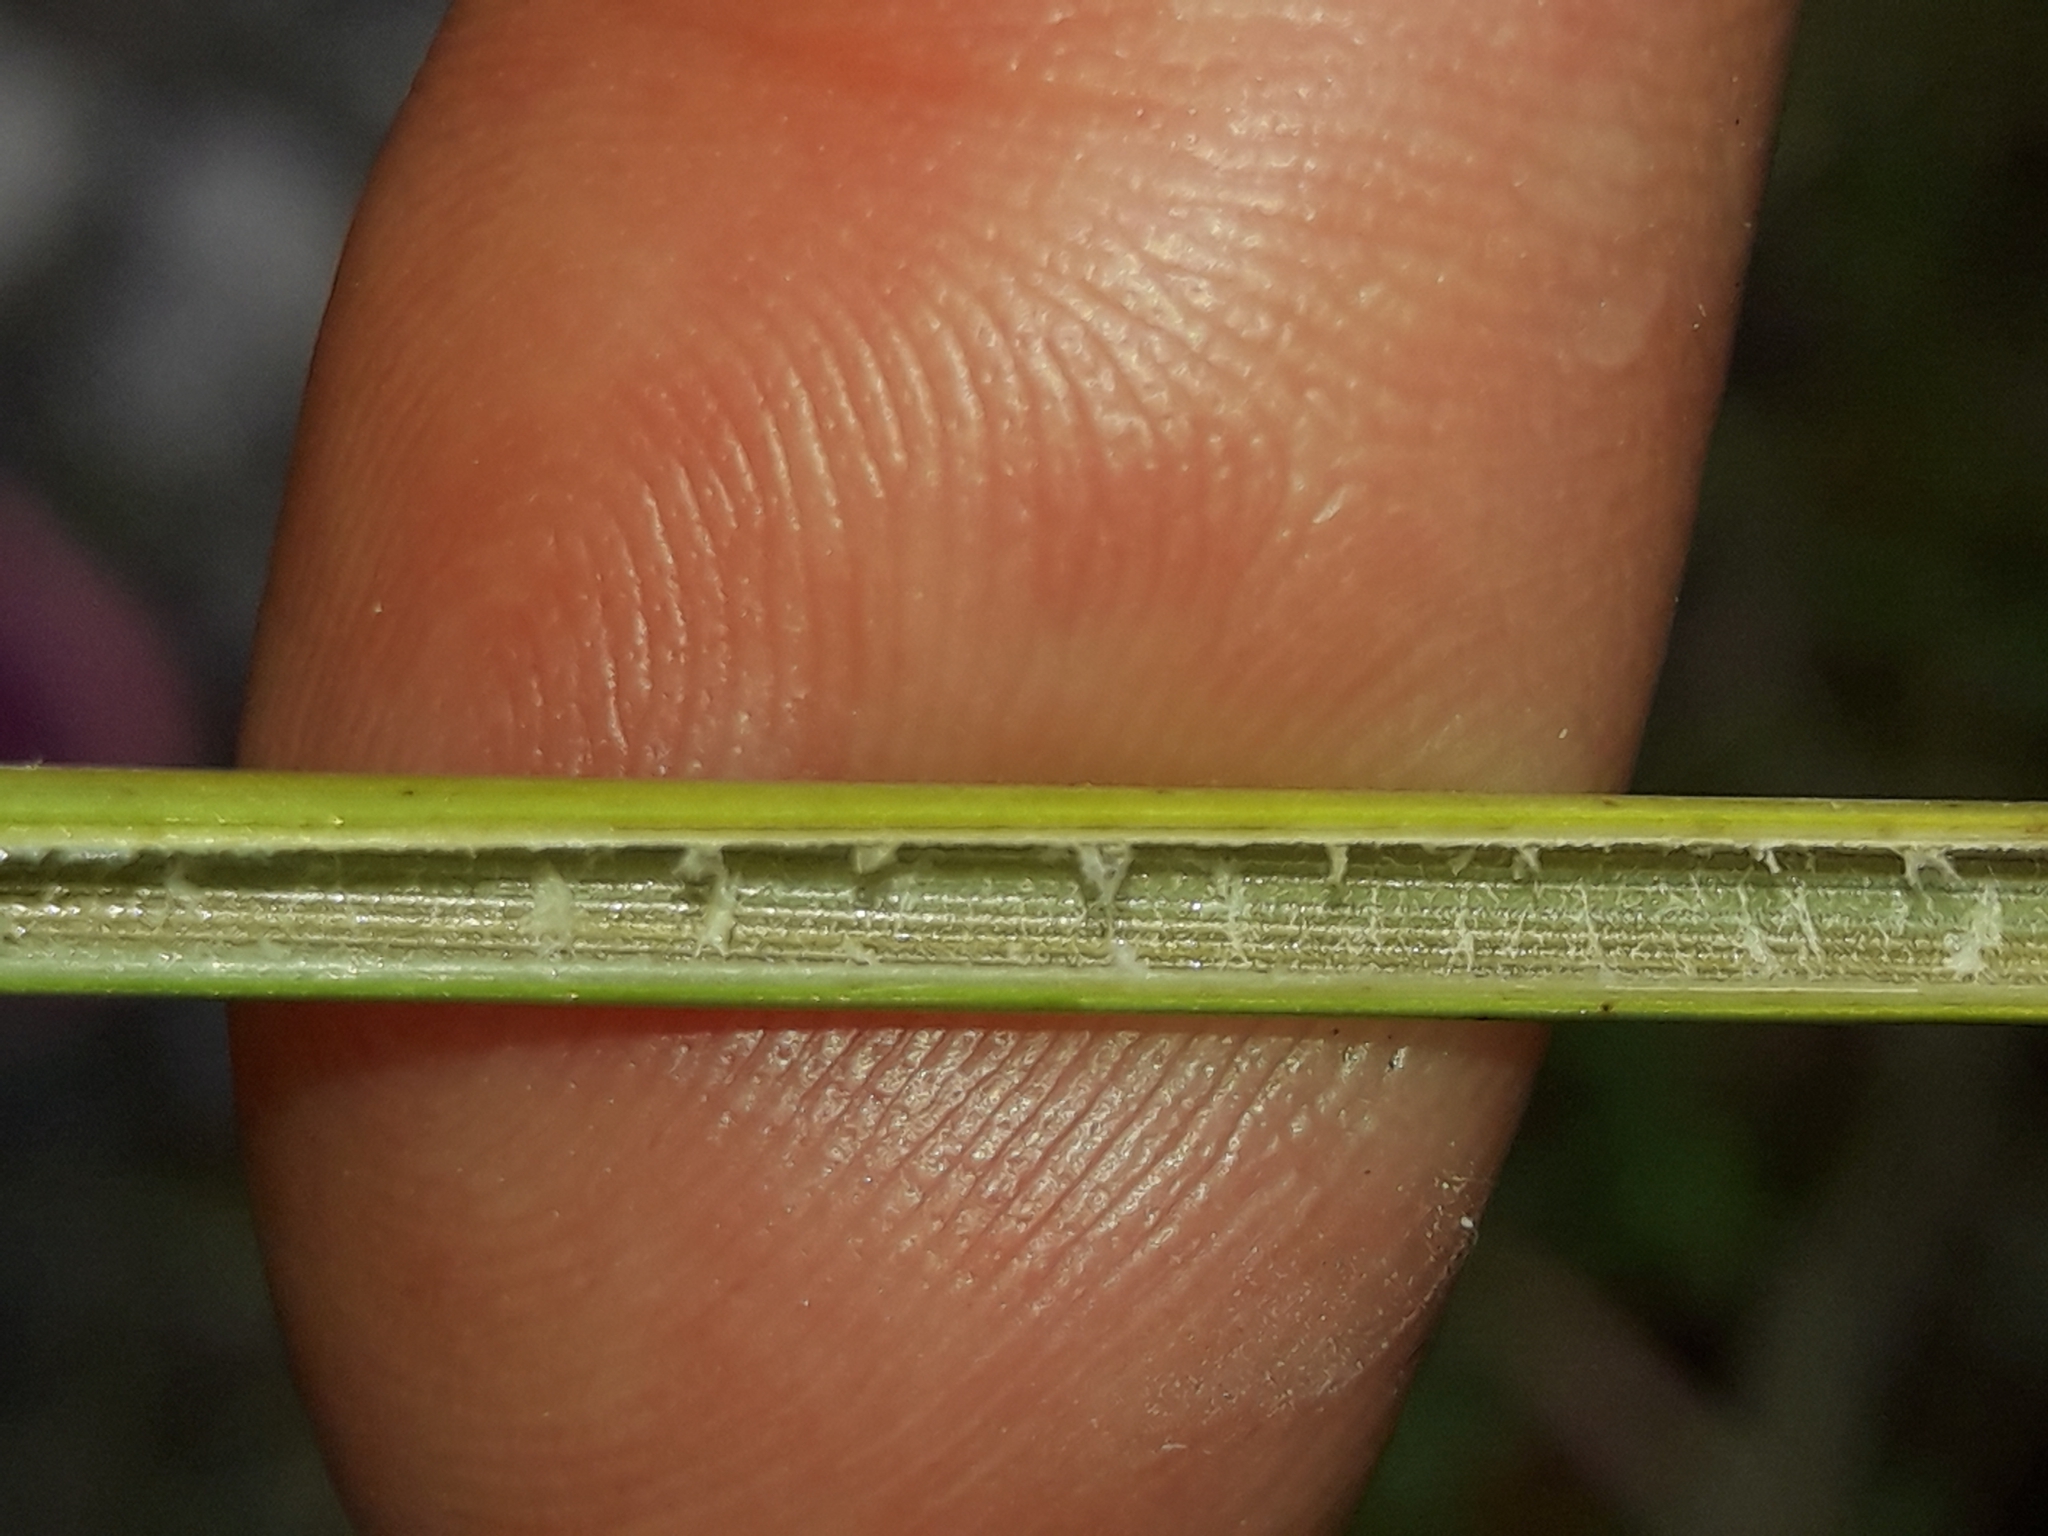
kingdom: Plantae
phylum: Tracheophyta
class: Liliopsida
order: Poales
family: Juncaceae
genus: Juncus
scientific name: Juncus australis
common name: Austral rush
